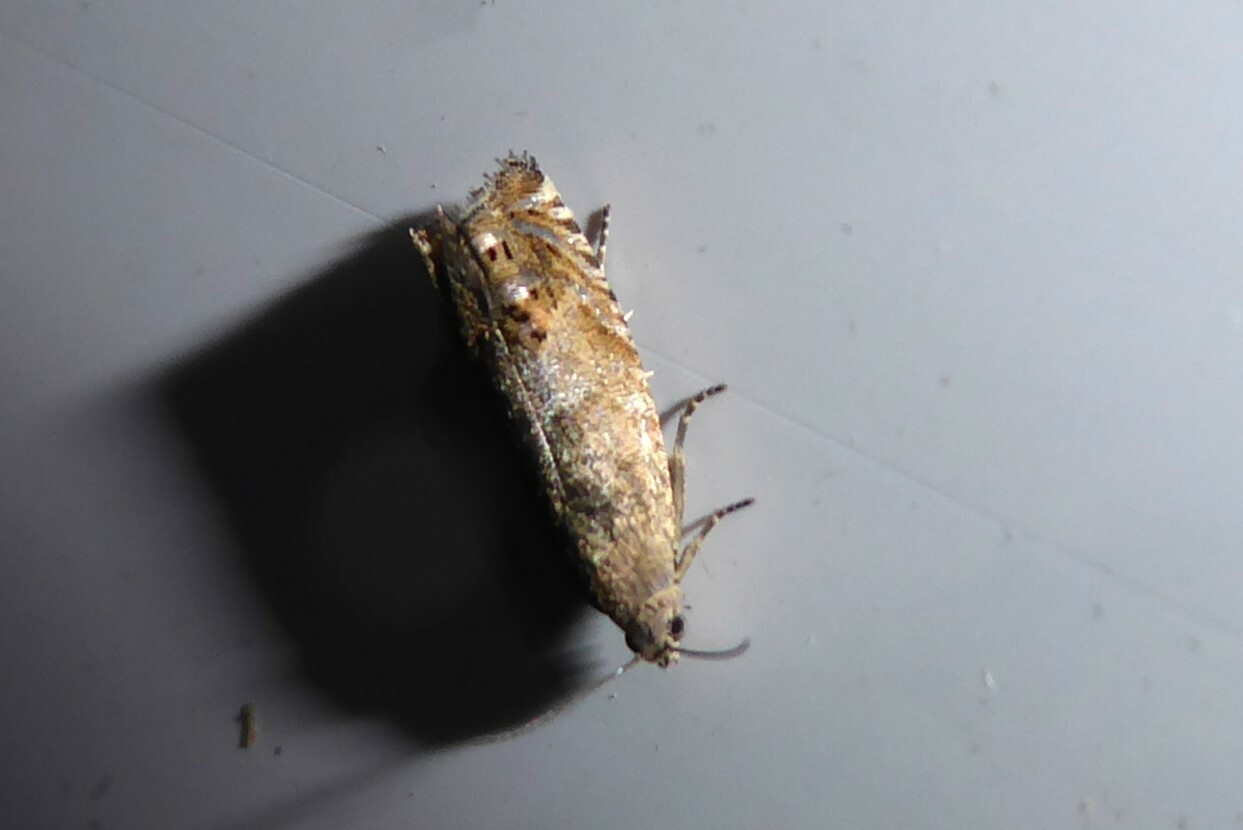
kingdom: Animalia
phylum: Arthropoda
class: Insecta
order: Lepidoptera
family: Tortricidae
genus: Cydia
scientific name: Cydia succedana
